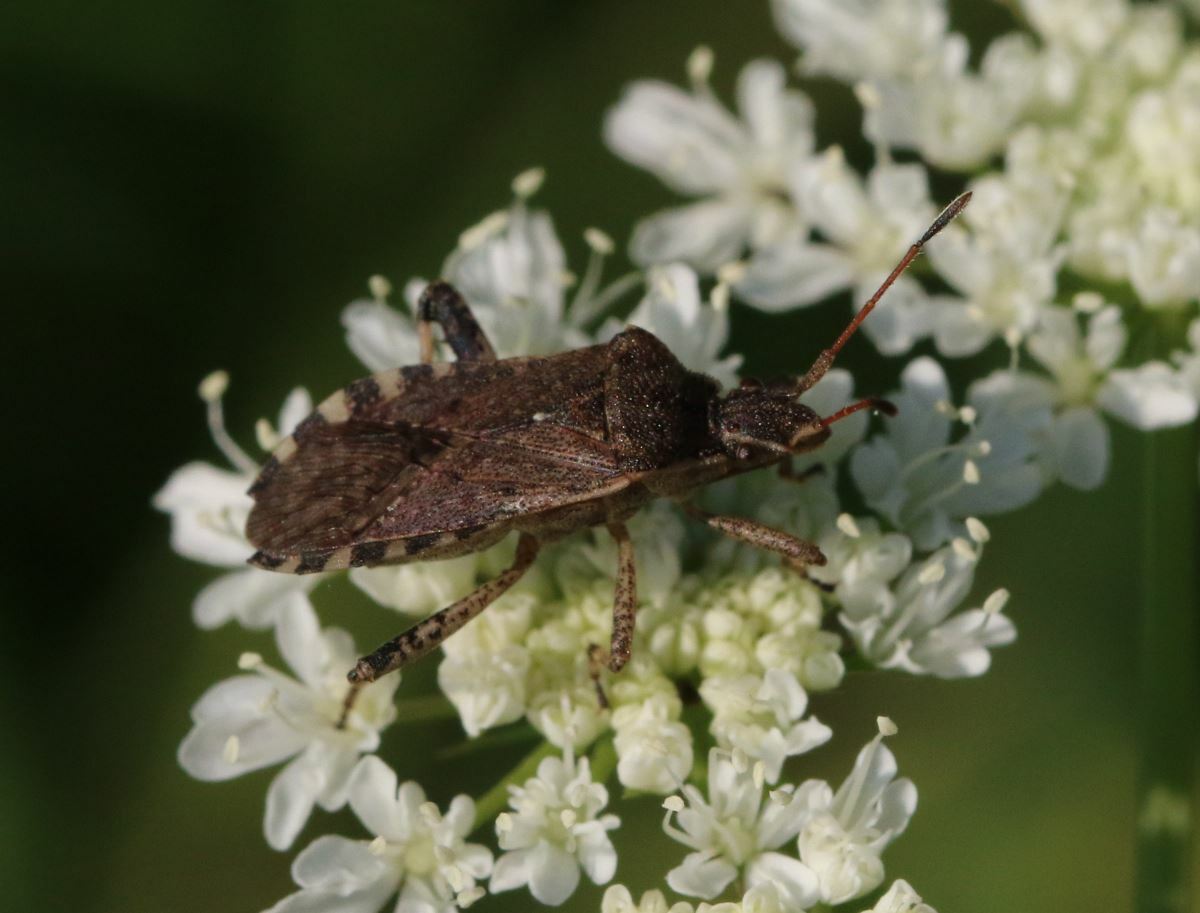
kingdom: Animalia
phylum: Arthropoda
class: Insecta
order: Hemiptera
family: Coreidae
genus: Ceraleptus
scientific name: Ceraleptus gracilicornis
